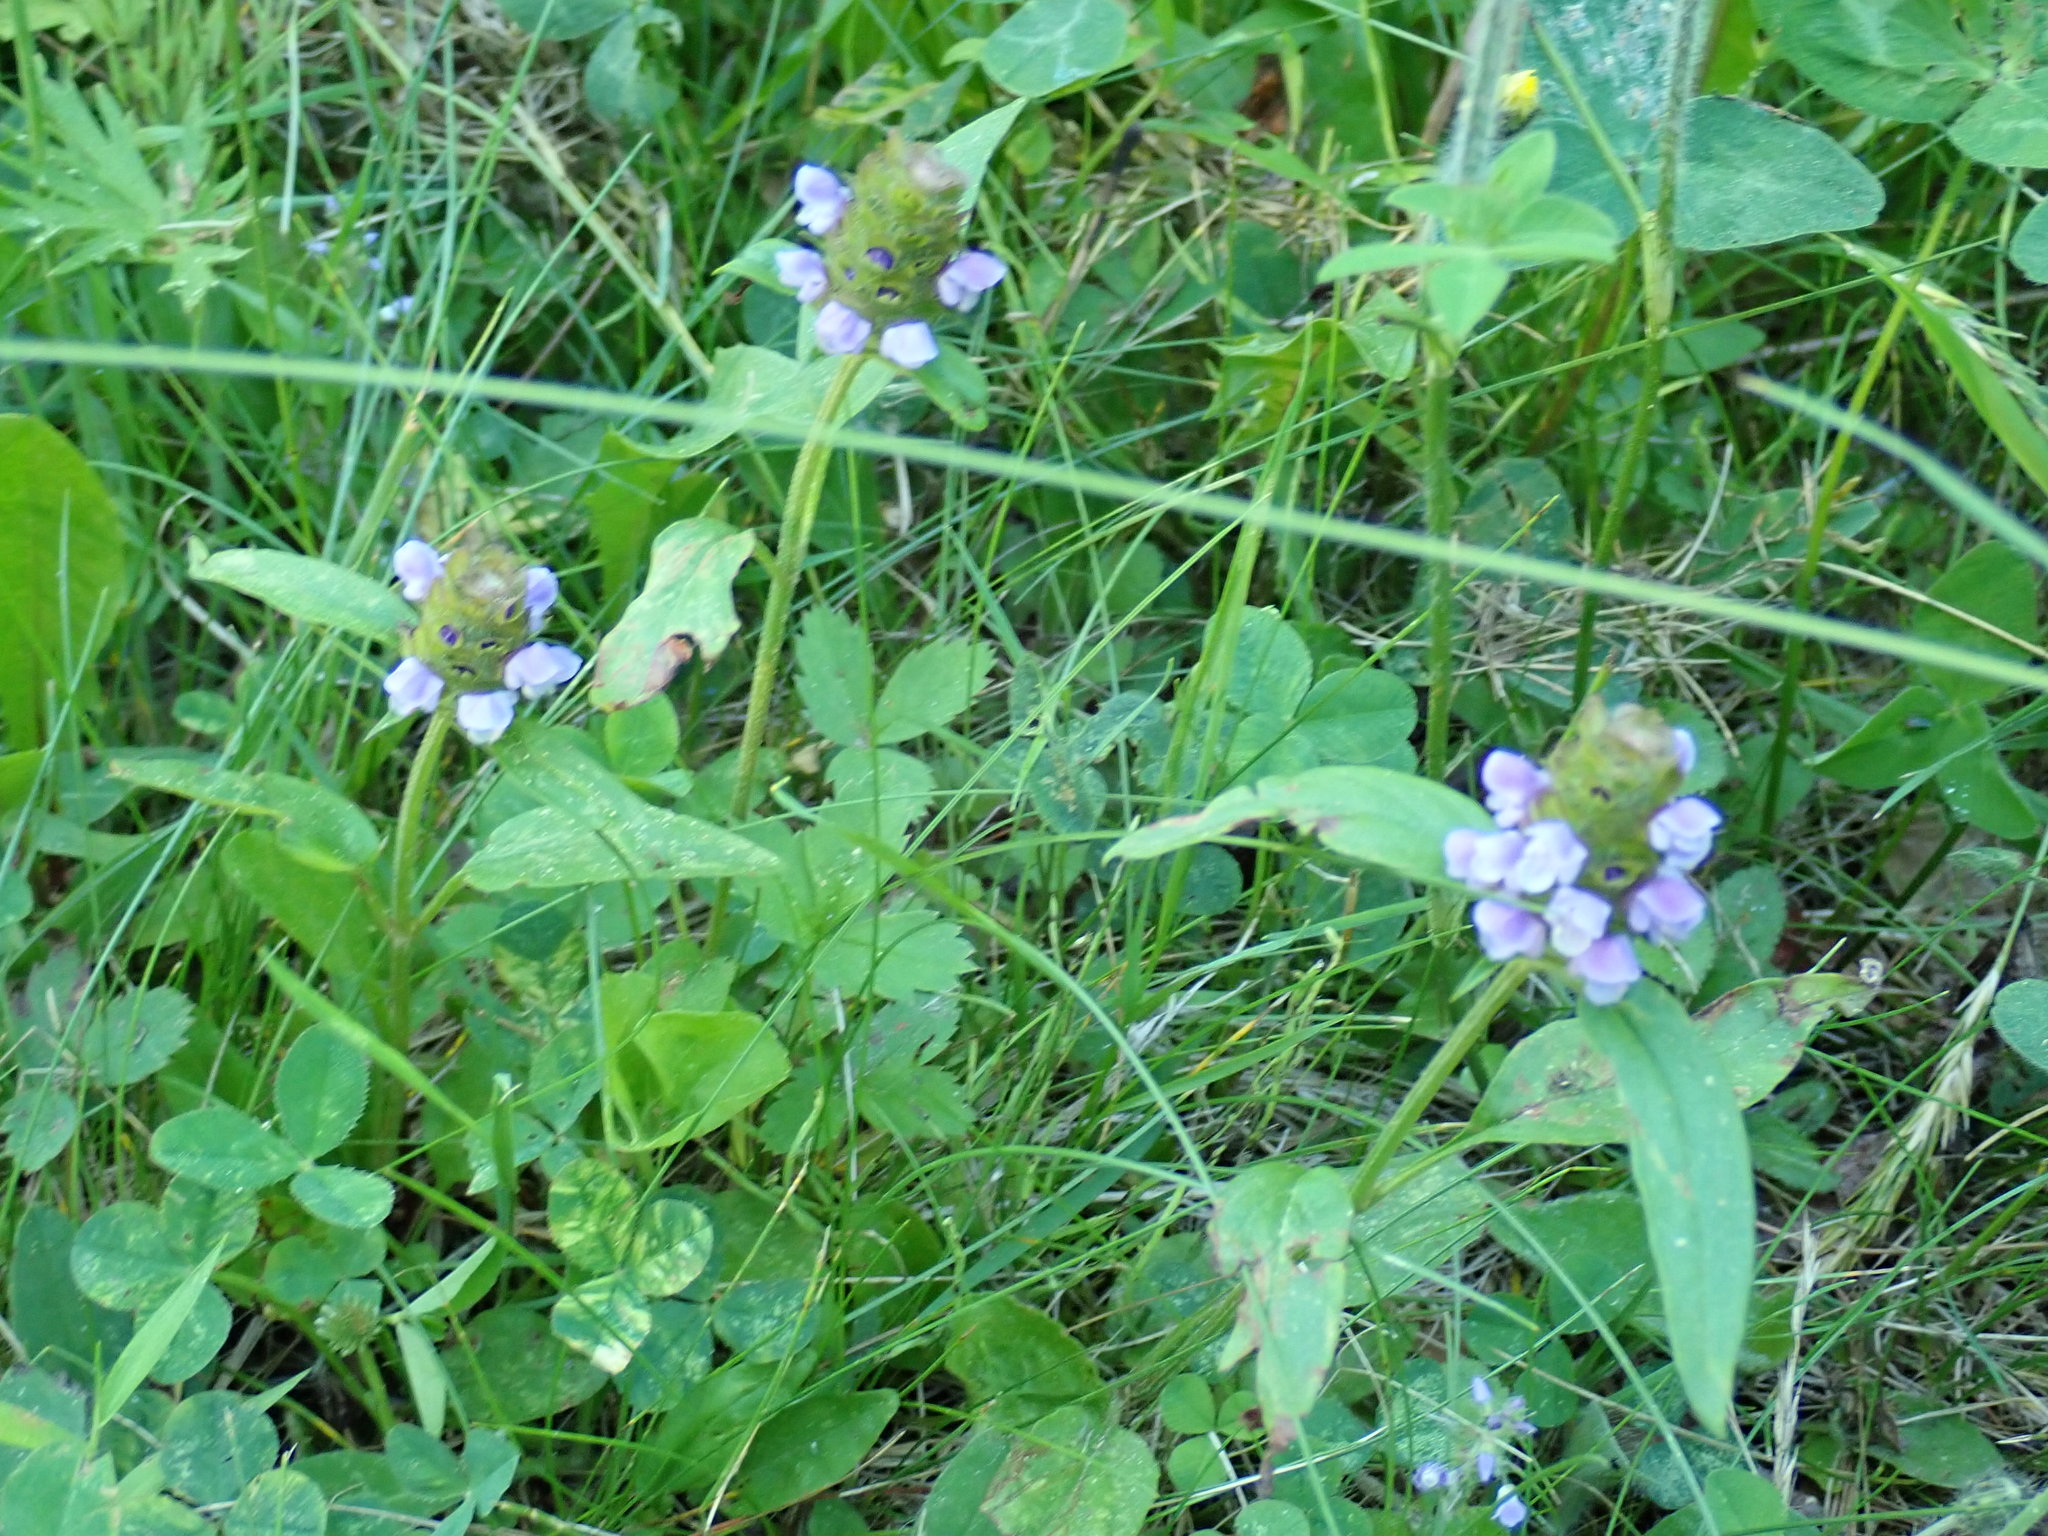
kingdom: Plantae
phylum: Tracheophyta
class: Magnoliopsida
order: Lamiales
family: Lamiaceae
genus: Prunella
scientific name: Prunella vulgaris
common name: Heal-all
